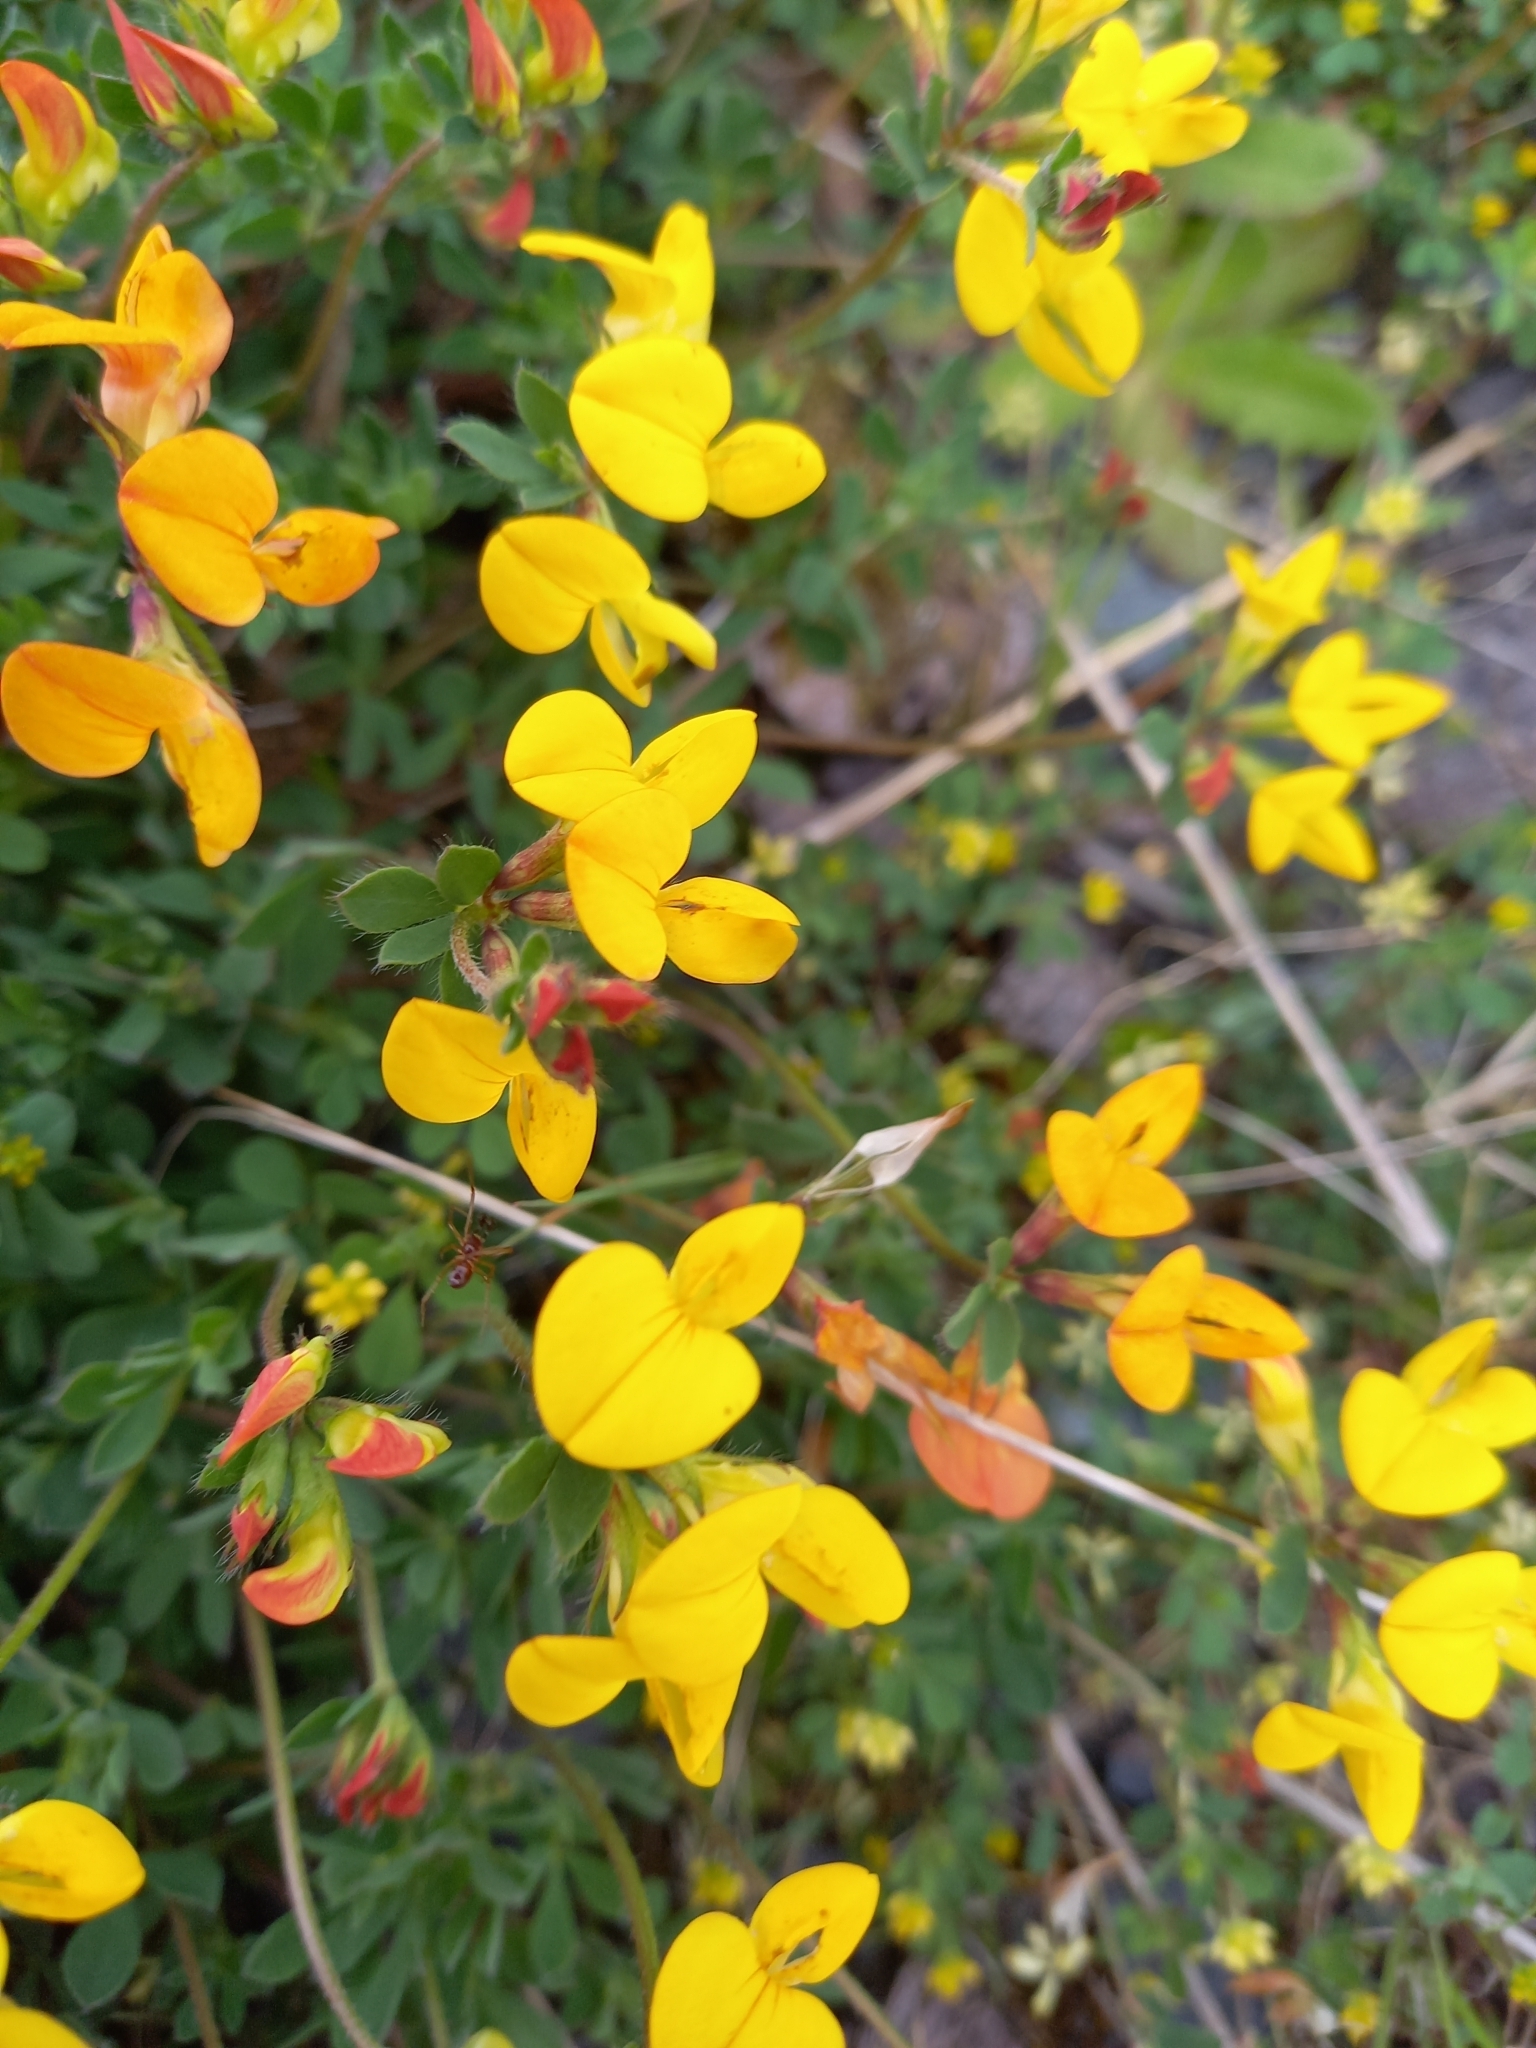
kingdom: Plantae
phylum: Tracheophyta
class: Magnoliopsida
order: Fabales
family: Fabaceae
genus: Lotus
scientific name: Lotus corniculatus
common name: Common bird's-foot-trefoil
